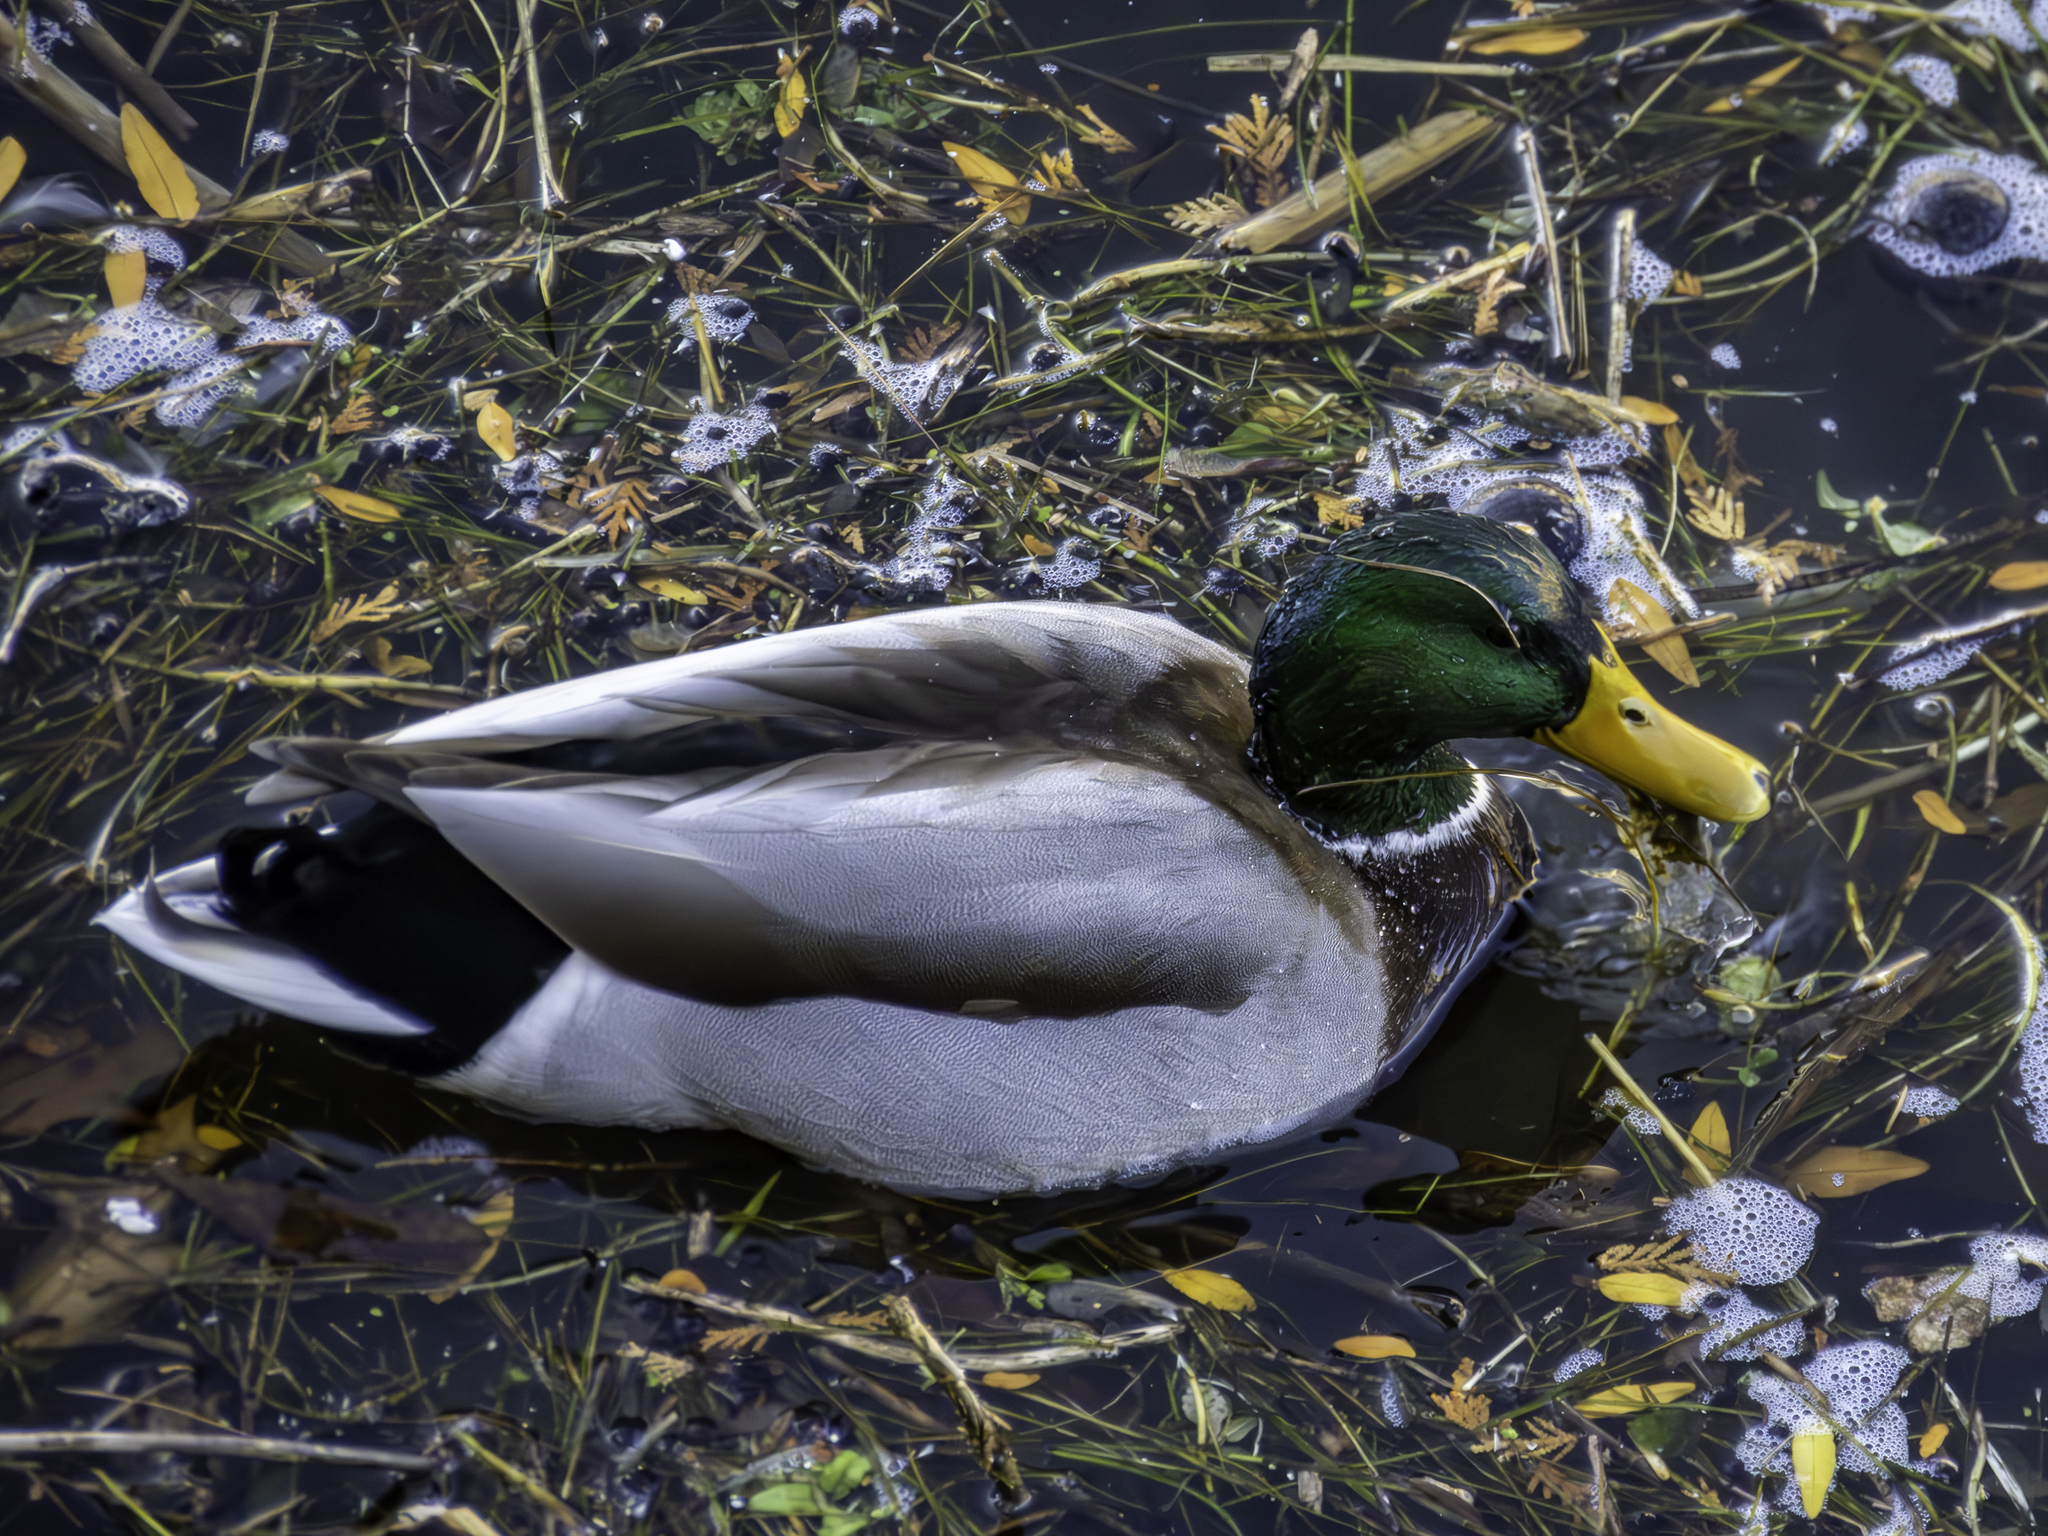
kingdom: Animalia
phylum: Chordata
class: Aves
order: Anseriformes
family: Anatidae
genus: Anas
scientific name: Anas platyrhynchos
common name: Mallard
